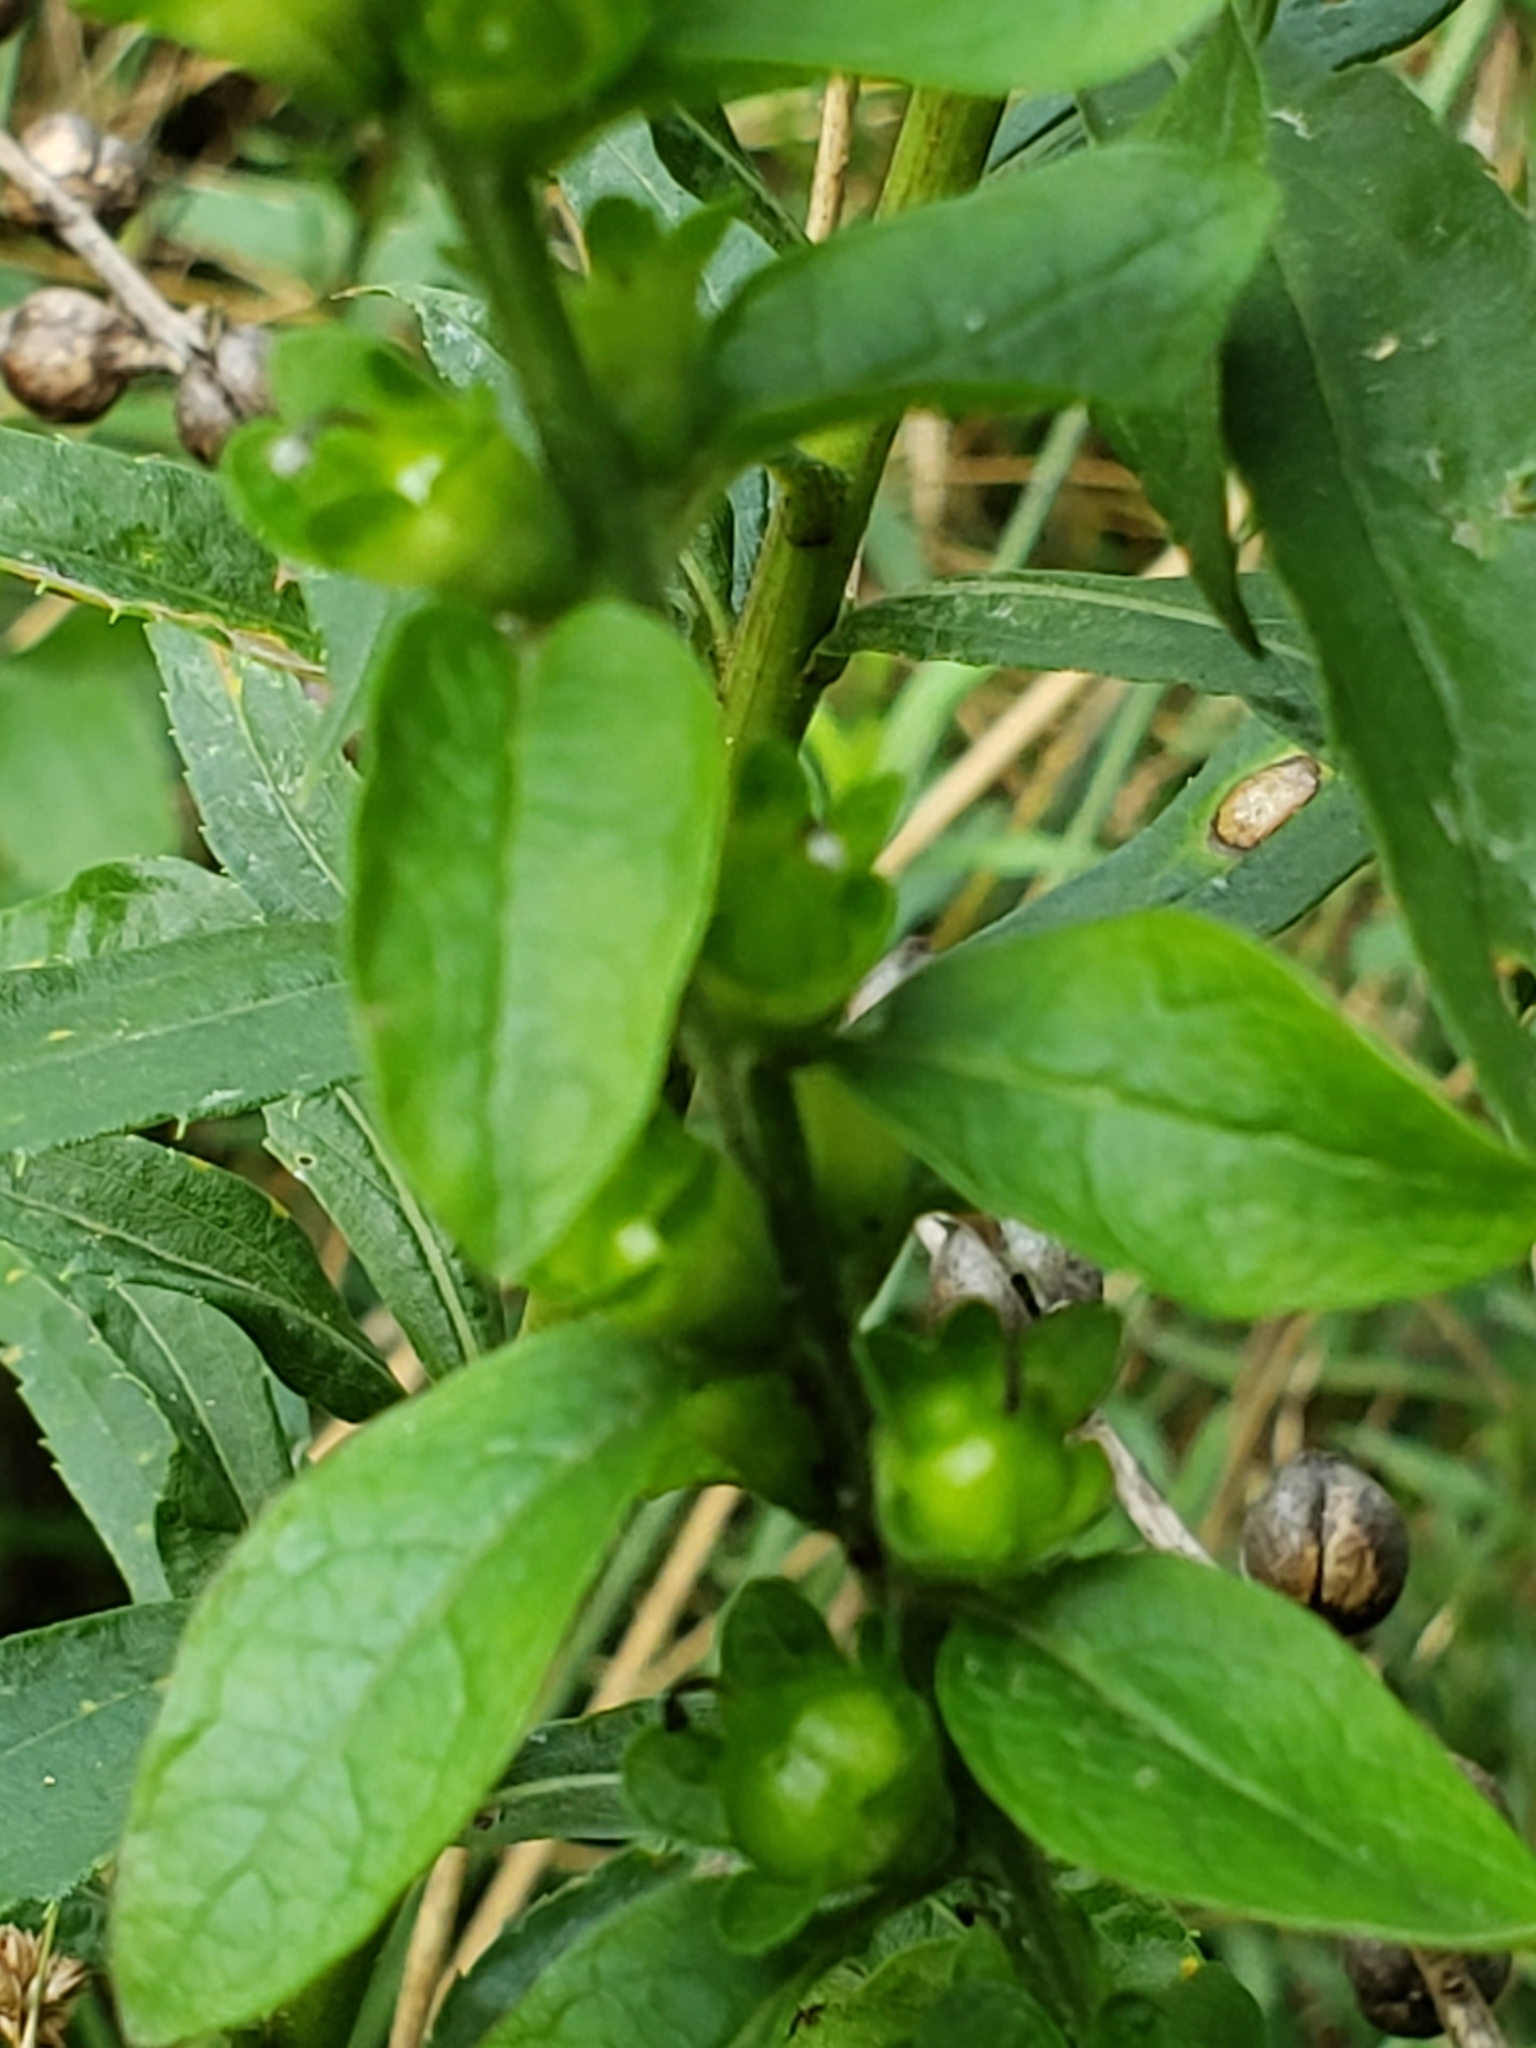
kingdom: Plantae
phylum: Tracheophyta
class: Magnoliopsida
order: Lamiales
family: Orobanchaceae
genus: Dasistoma
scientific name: Dasistoma macrophyllum
